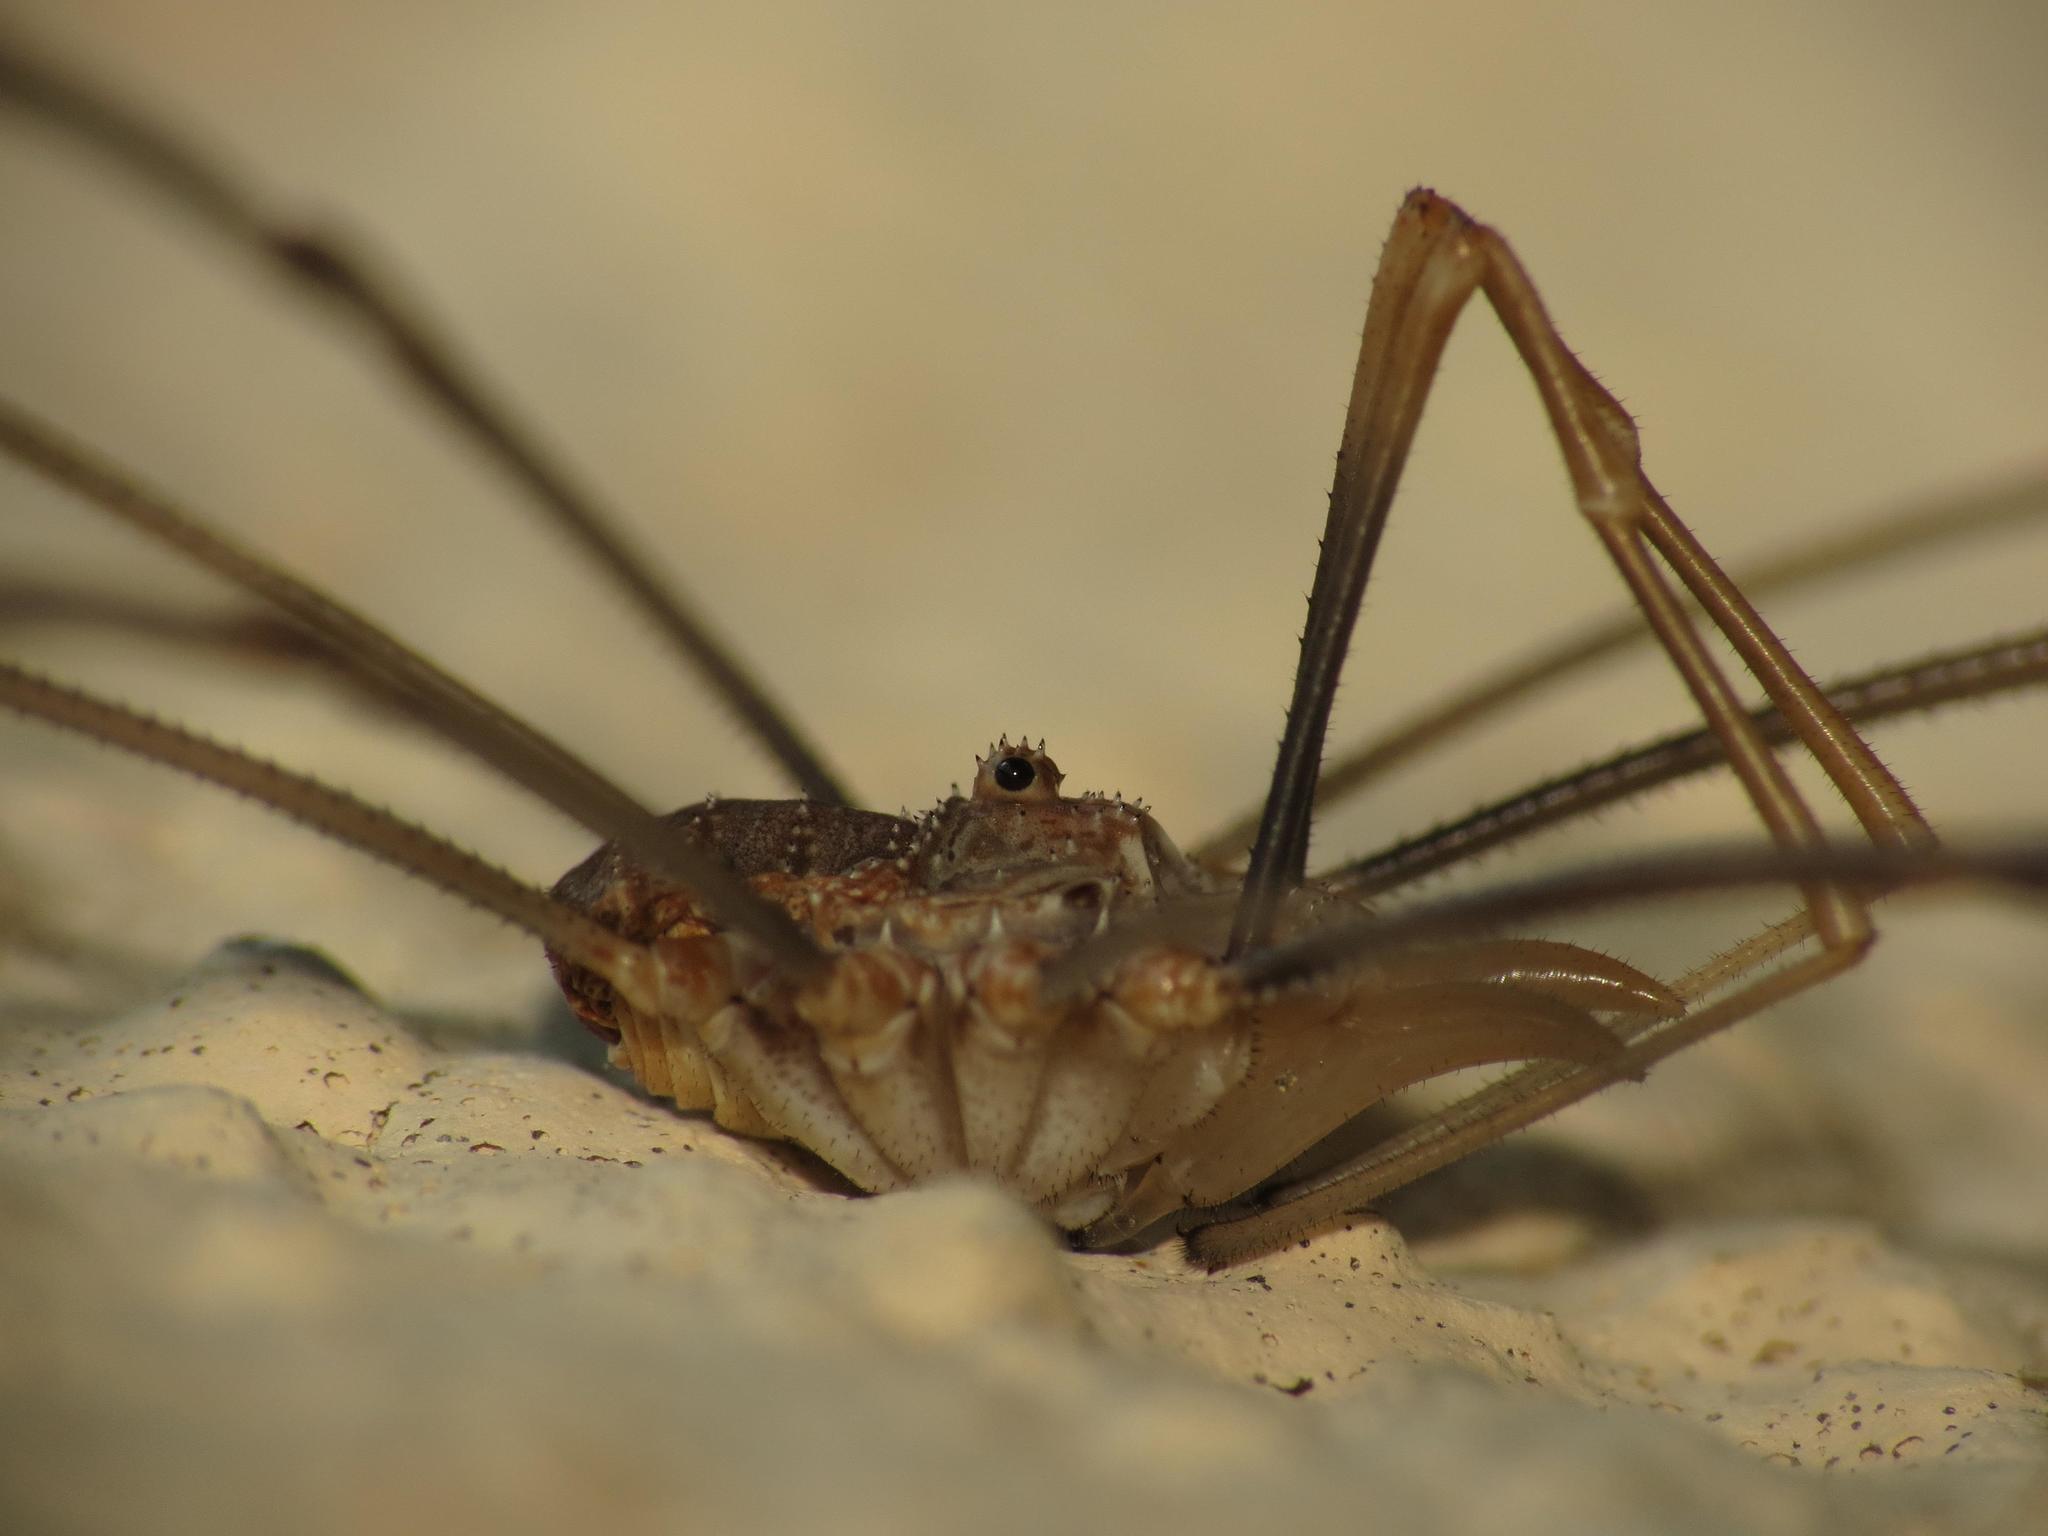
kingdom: Animalia
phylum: Arthropoda
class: Arachnida
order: Opiliones
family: Phalangiidae
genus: Phalangium
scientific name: Phalangium opilio
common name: Daddy longleg
